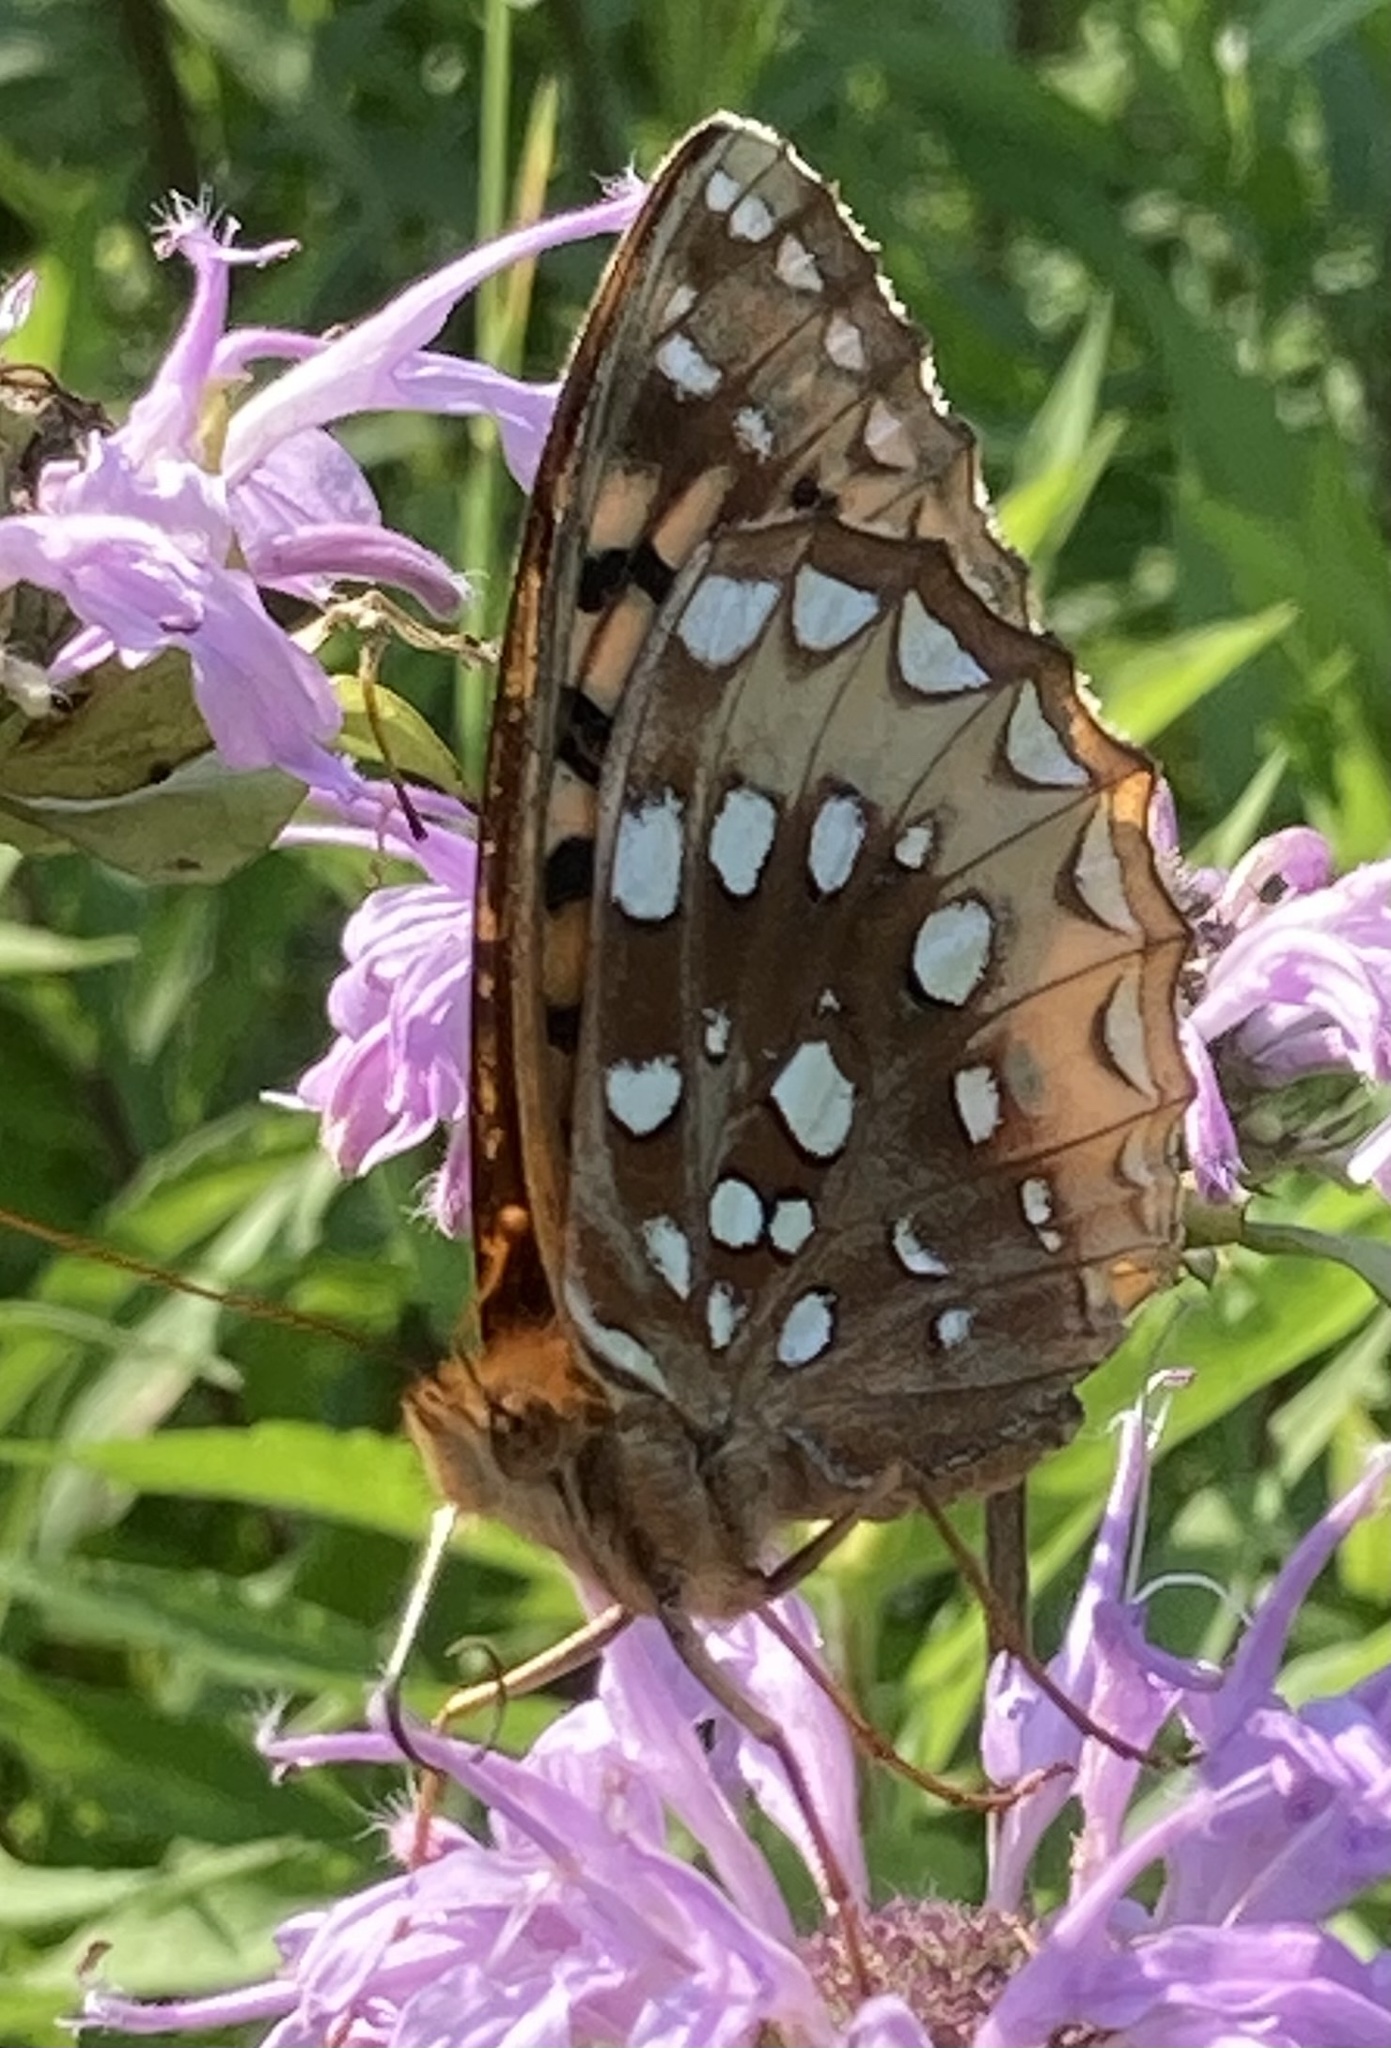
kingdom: Animalia
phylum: Arthropoda
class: Insecta
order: Lepidoptera
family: Nymphalidae
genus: Speyeria
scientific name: Speyeria cybele
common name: Great spangled fritillary
